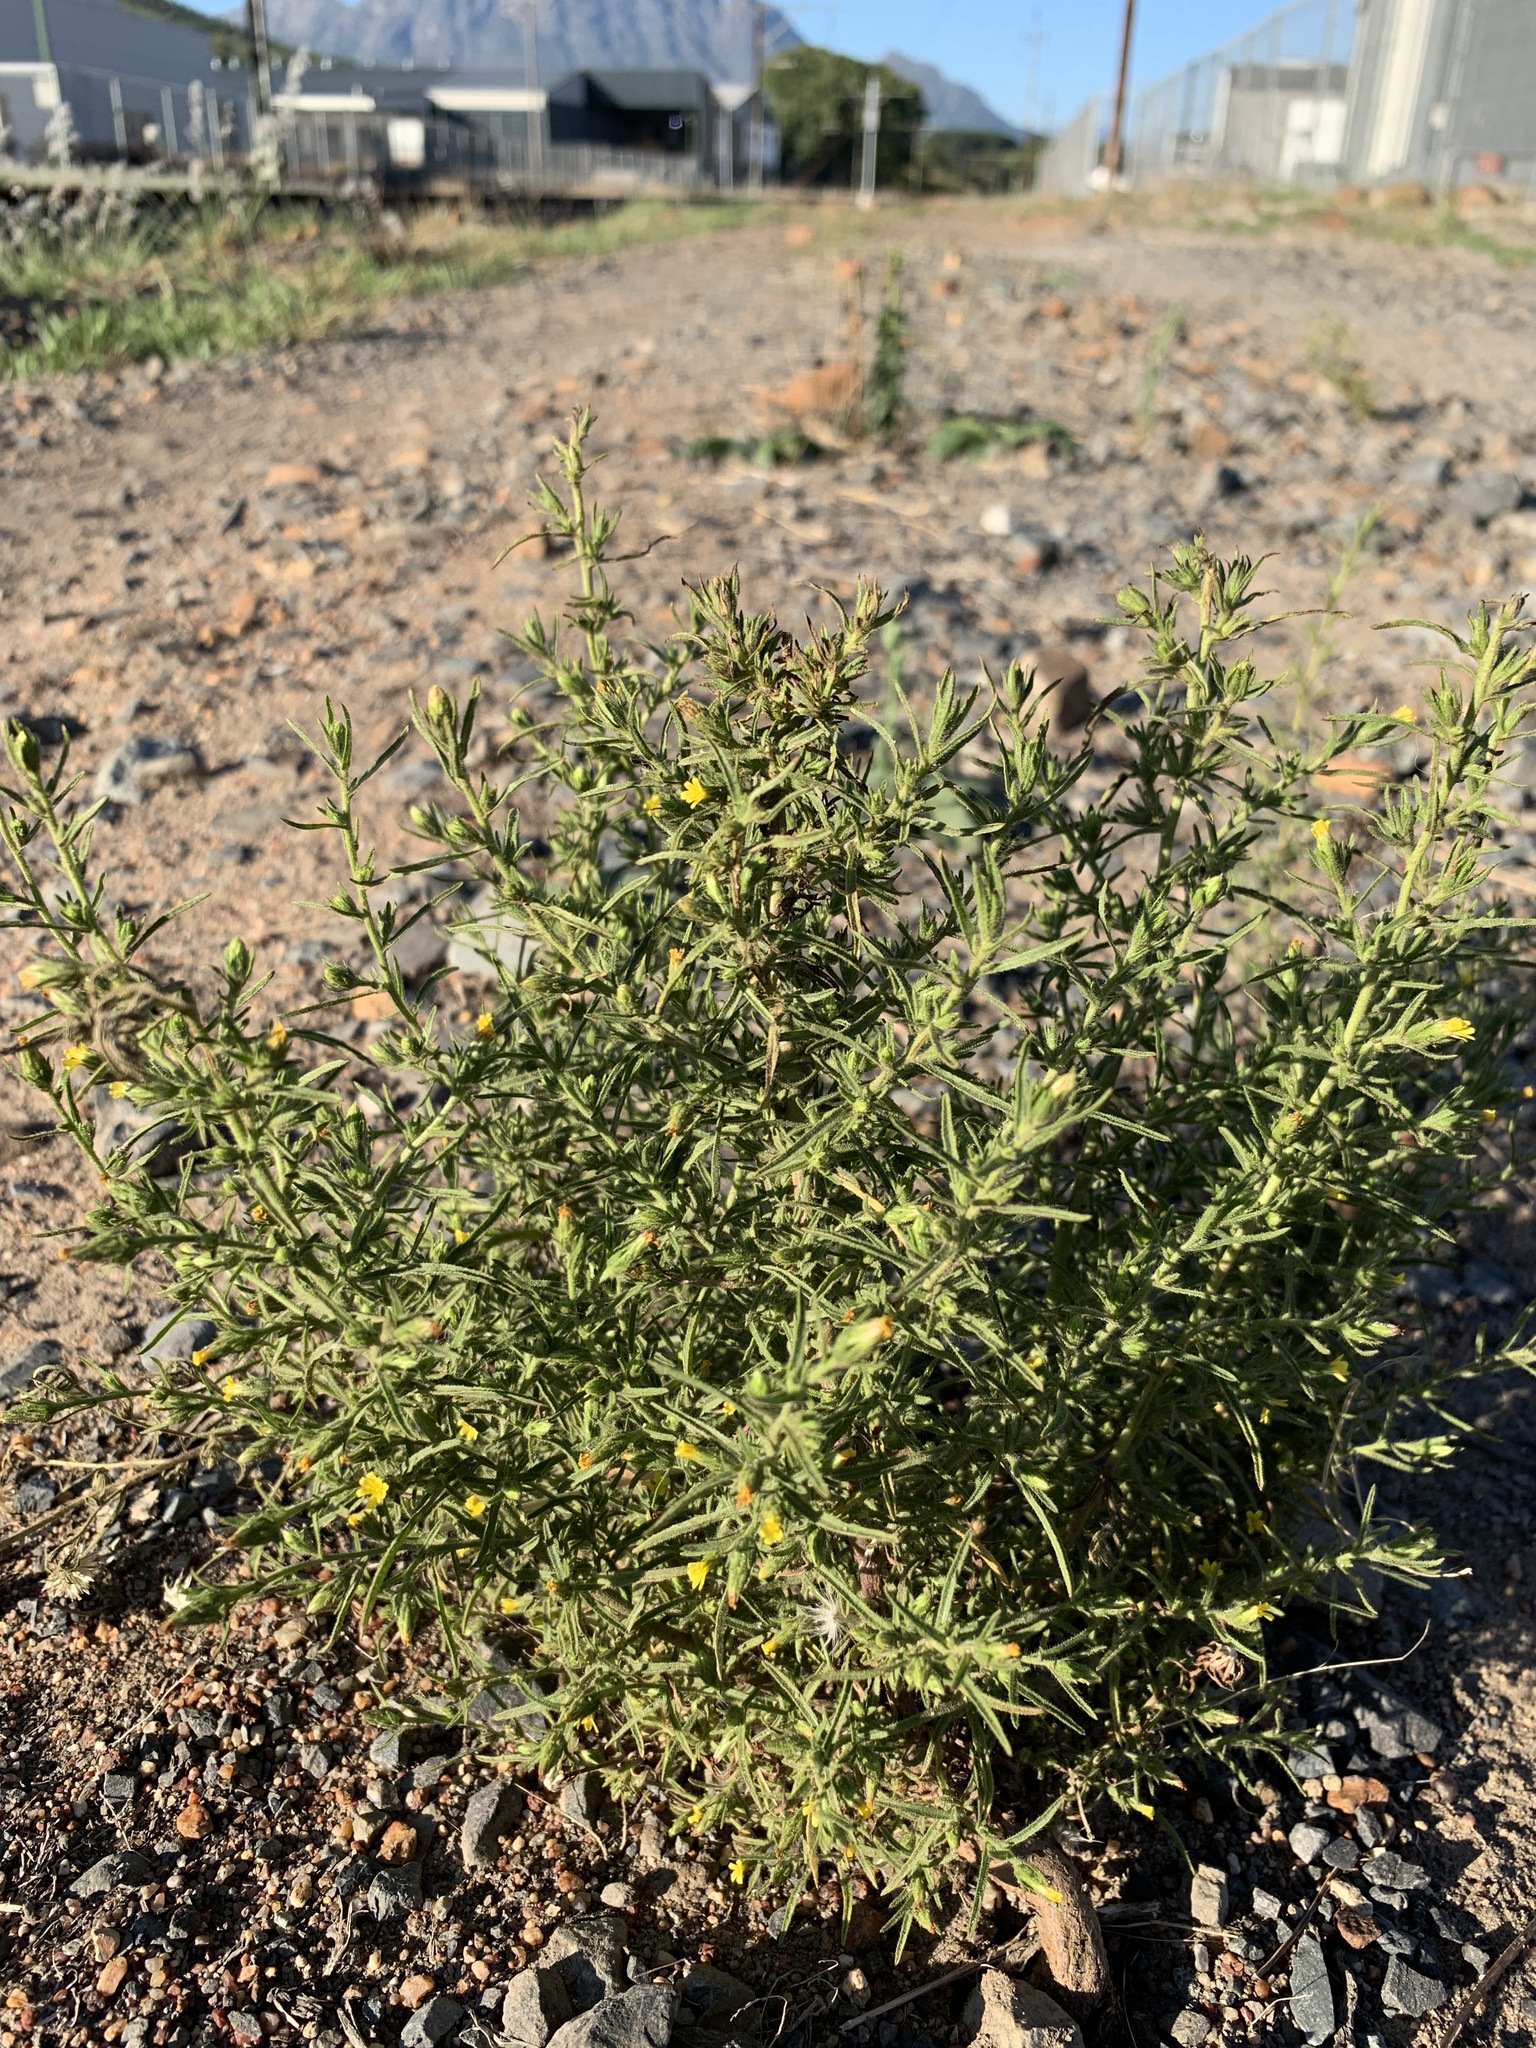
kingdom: Plantae
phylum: Tracheophyta
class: Magnoliopsida
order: Asterales
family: Asteraceae
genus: Dittrichia
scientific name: Dittrichia graveolens
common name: Stinking fleabane
